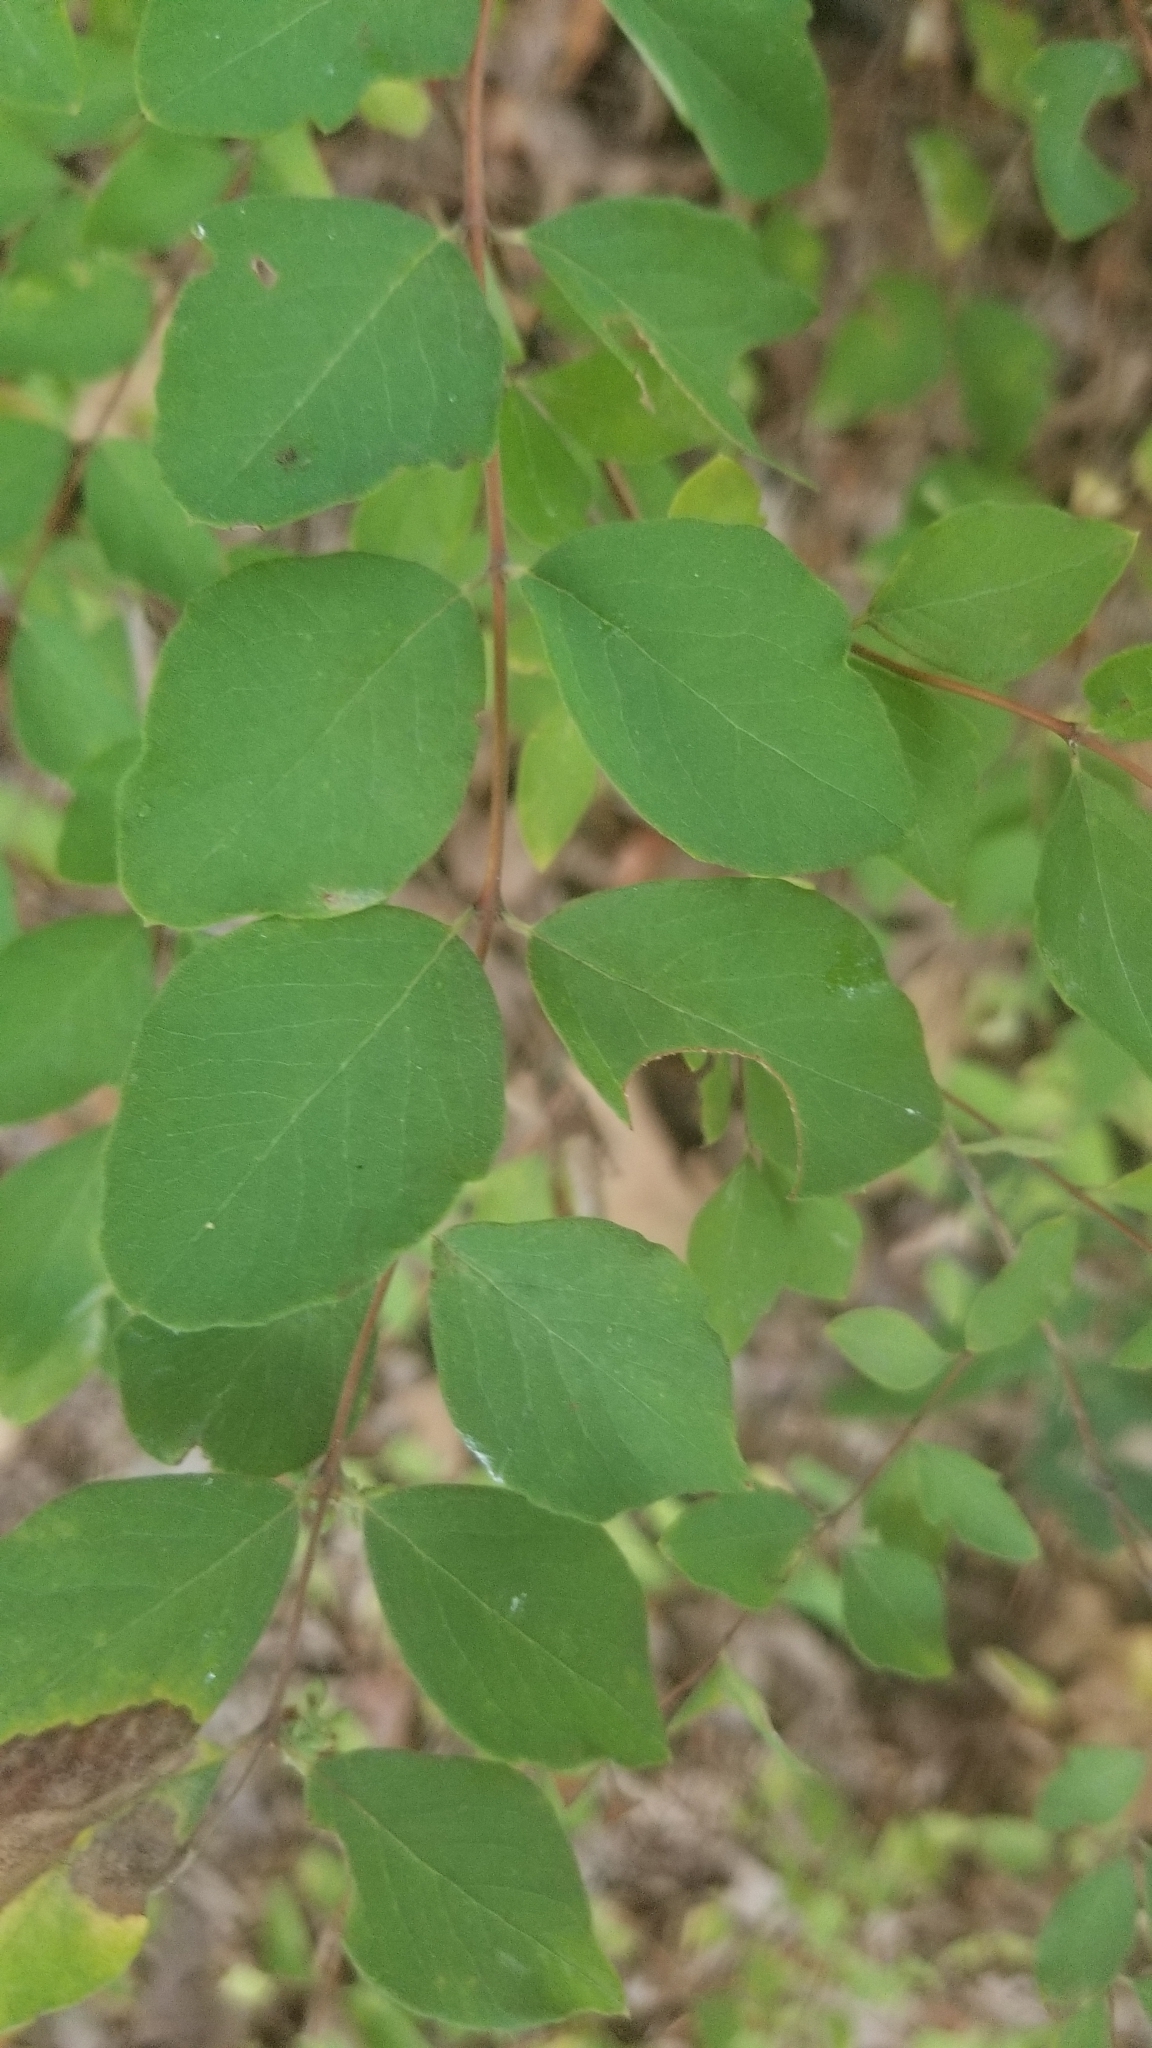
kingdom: Plantae
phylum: Tracheophyta
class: Magnoliopsida
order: Dipsacales
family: Caprifoliaceae
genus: Symphoricarpos
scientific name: Symphoricarpos orbiculatus
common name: Coralberry
